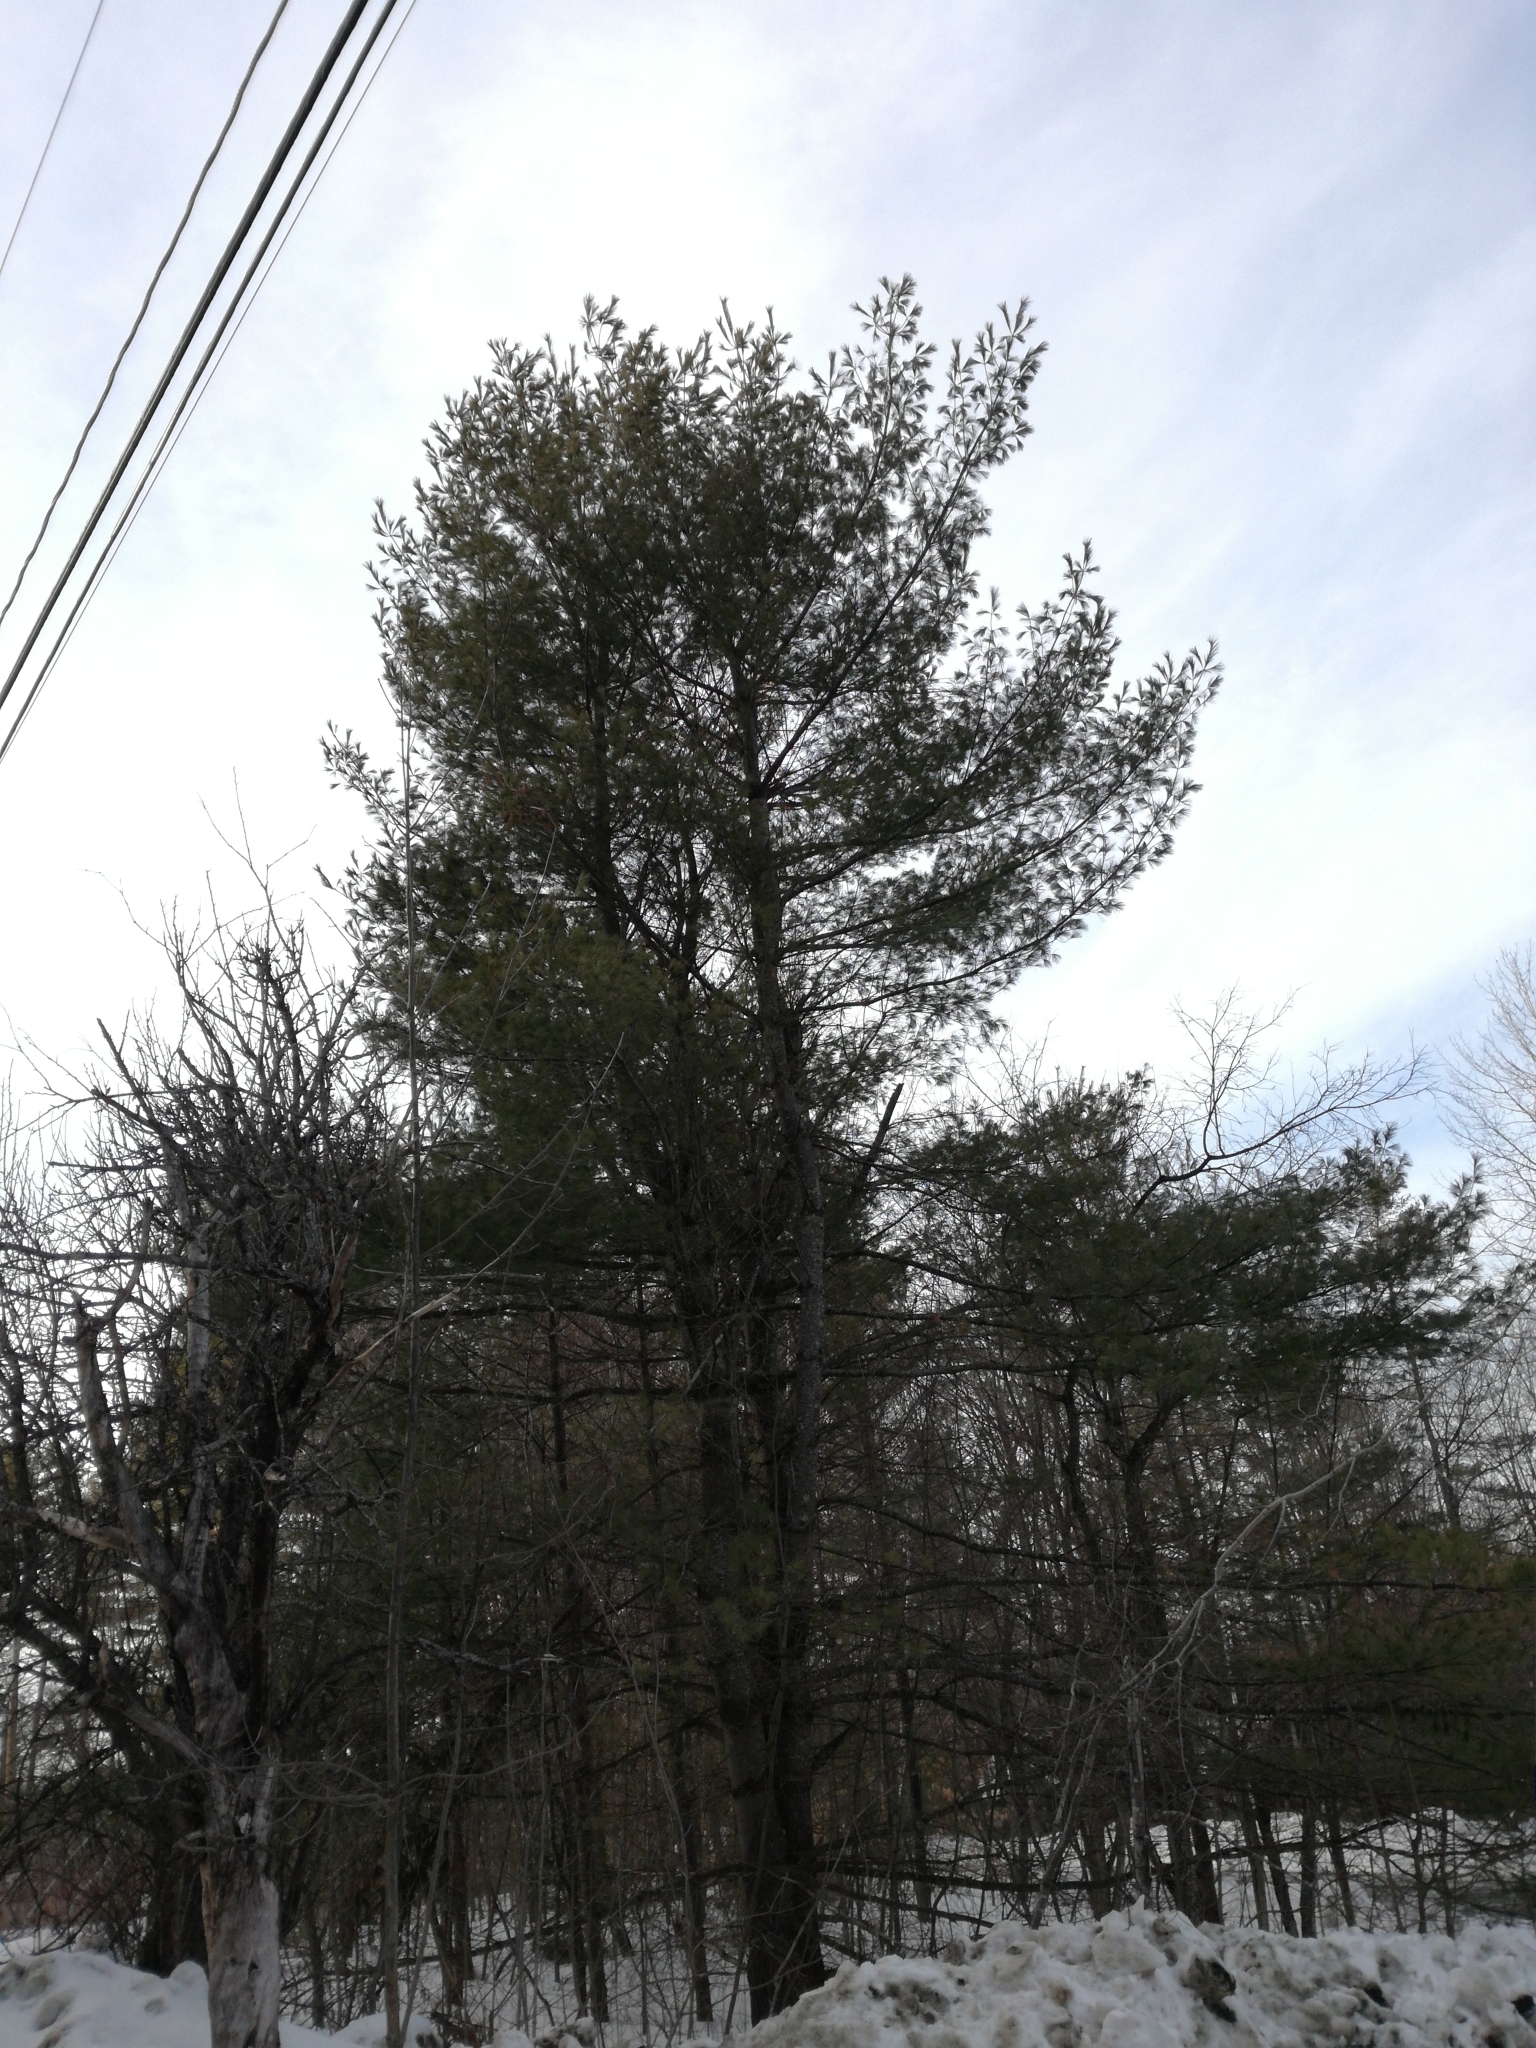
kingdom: Plantae
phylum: Tracheophyta
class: Pinopsida
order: Pinales
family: Pinaceae
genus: Pinus
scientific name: Pinus strobus
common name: Weymouth pine
